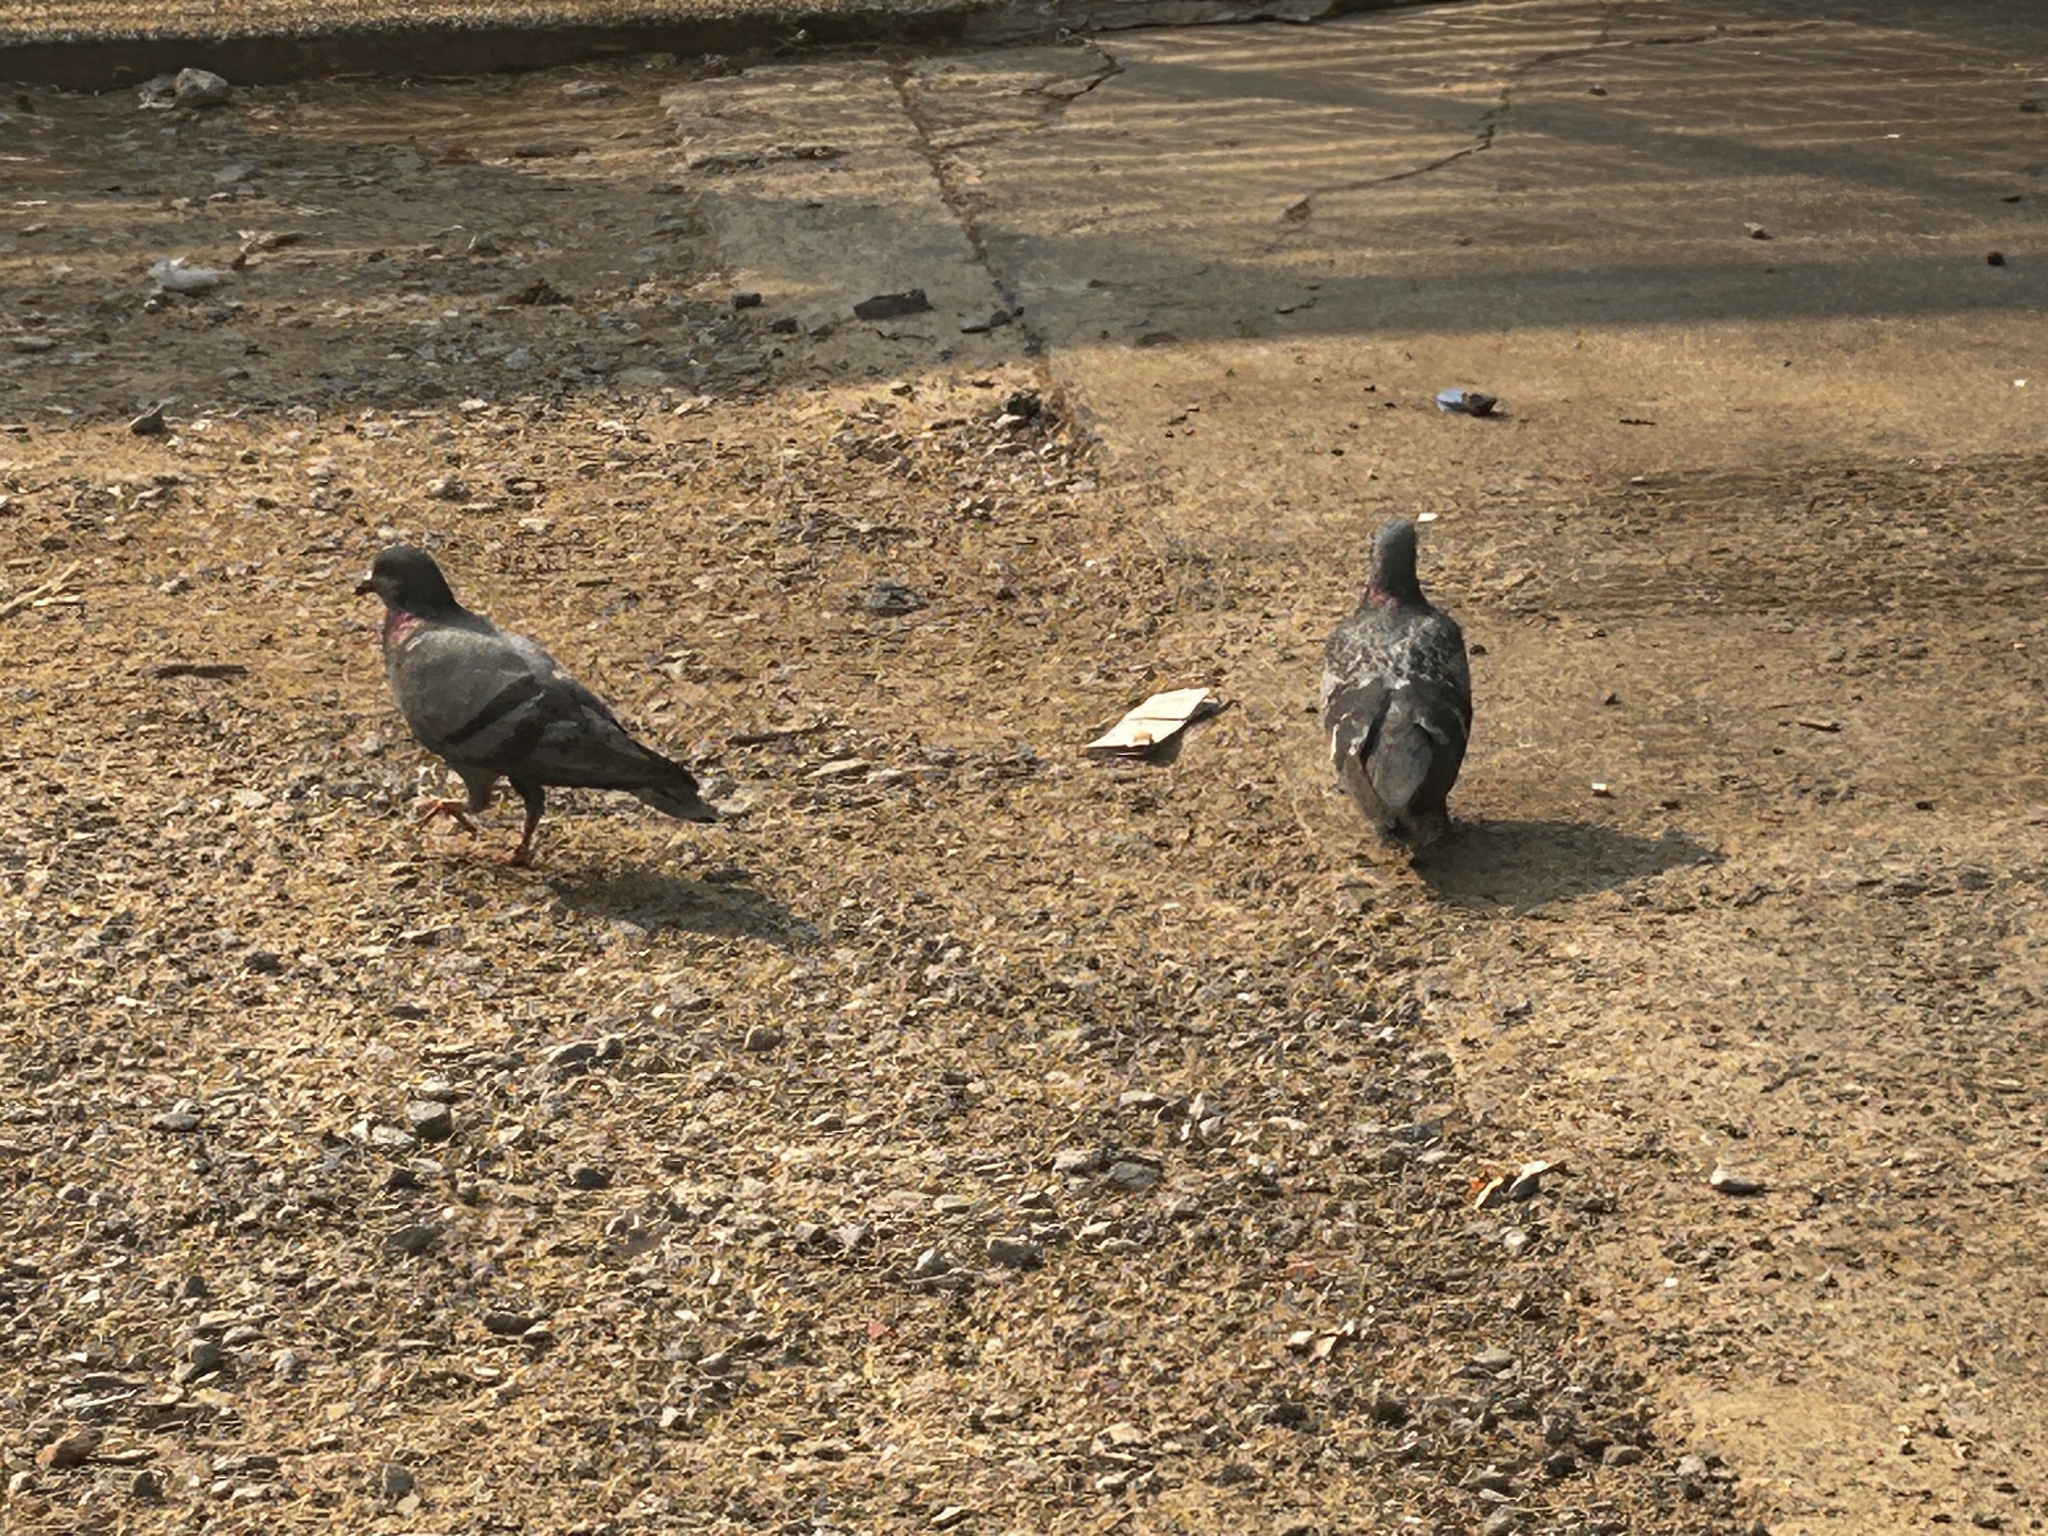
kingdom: Animalia
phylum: Chordata
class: Aves
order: Columbiformes
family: Columbidae
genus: Columba
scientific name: Columba livia
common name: Rock pigeon
